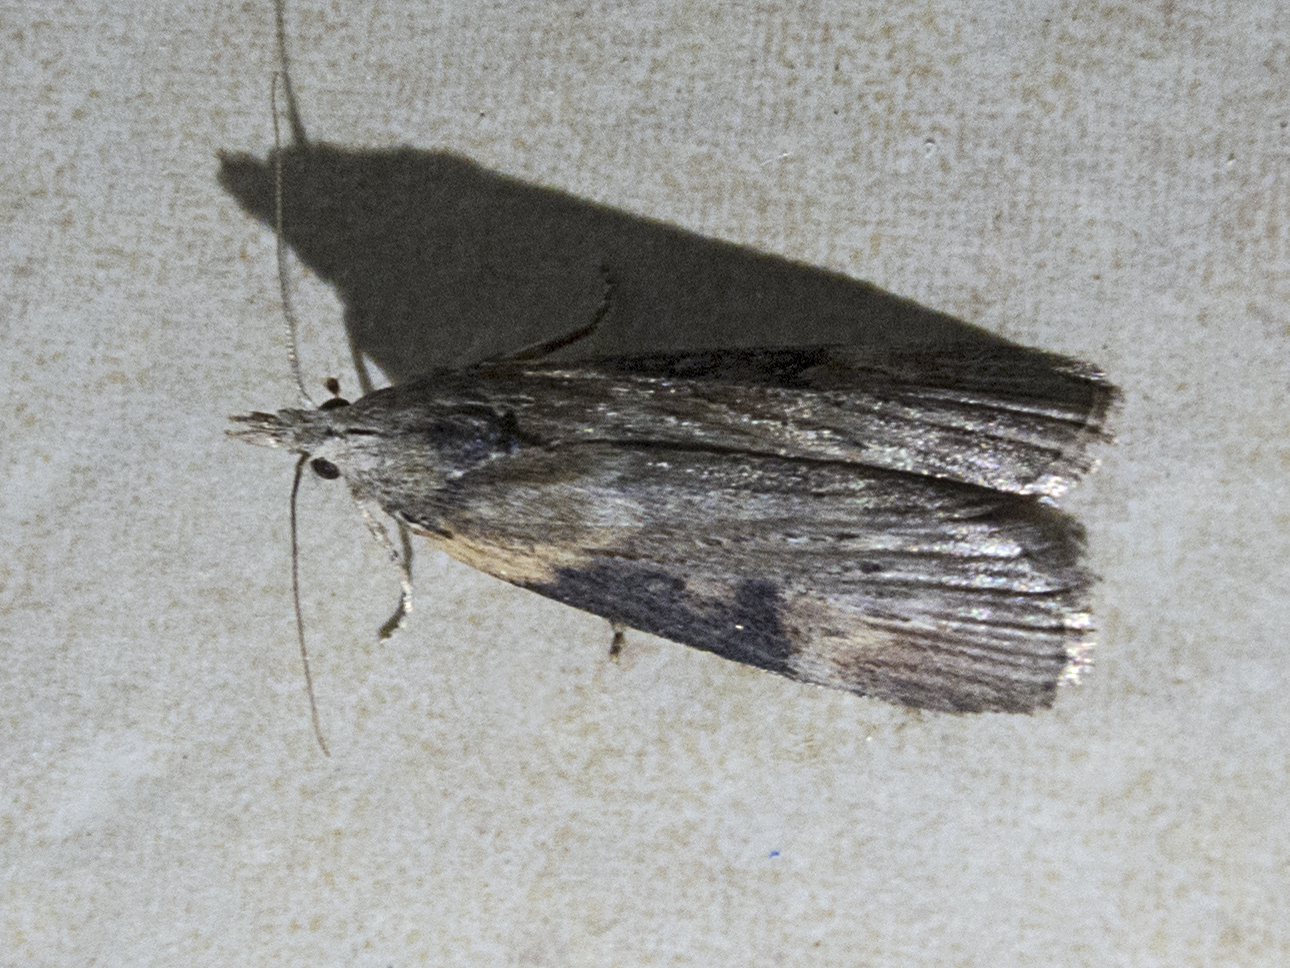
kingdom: Animalia
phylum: Arthropoda
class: Insecta
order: Lepidoptera
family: Pyralidae
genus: Lamoria
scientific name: Lamoria anella
